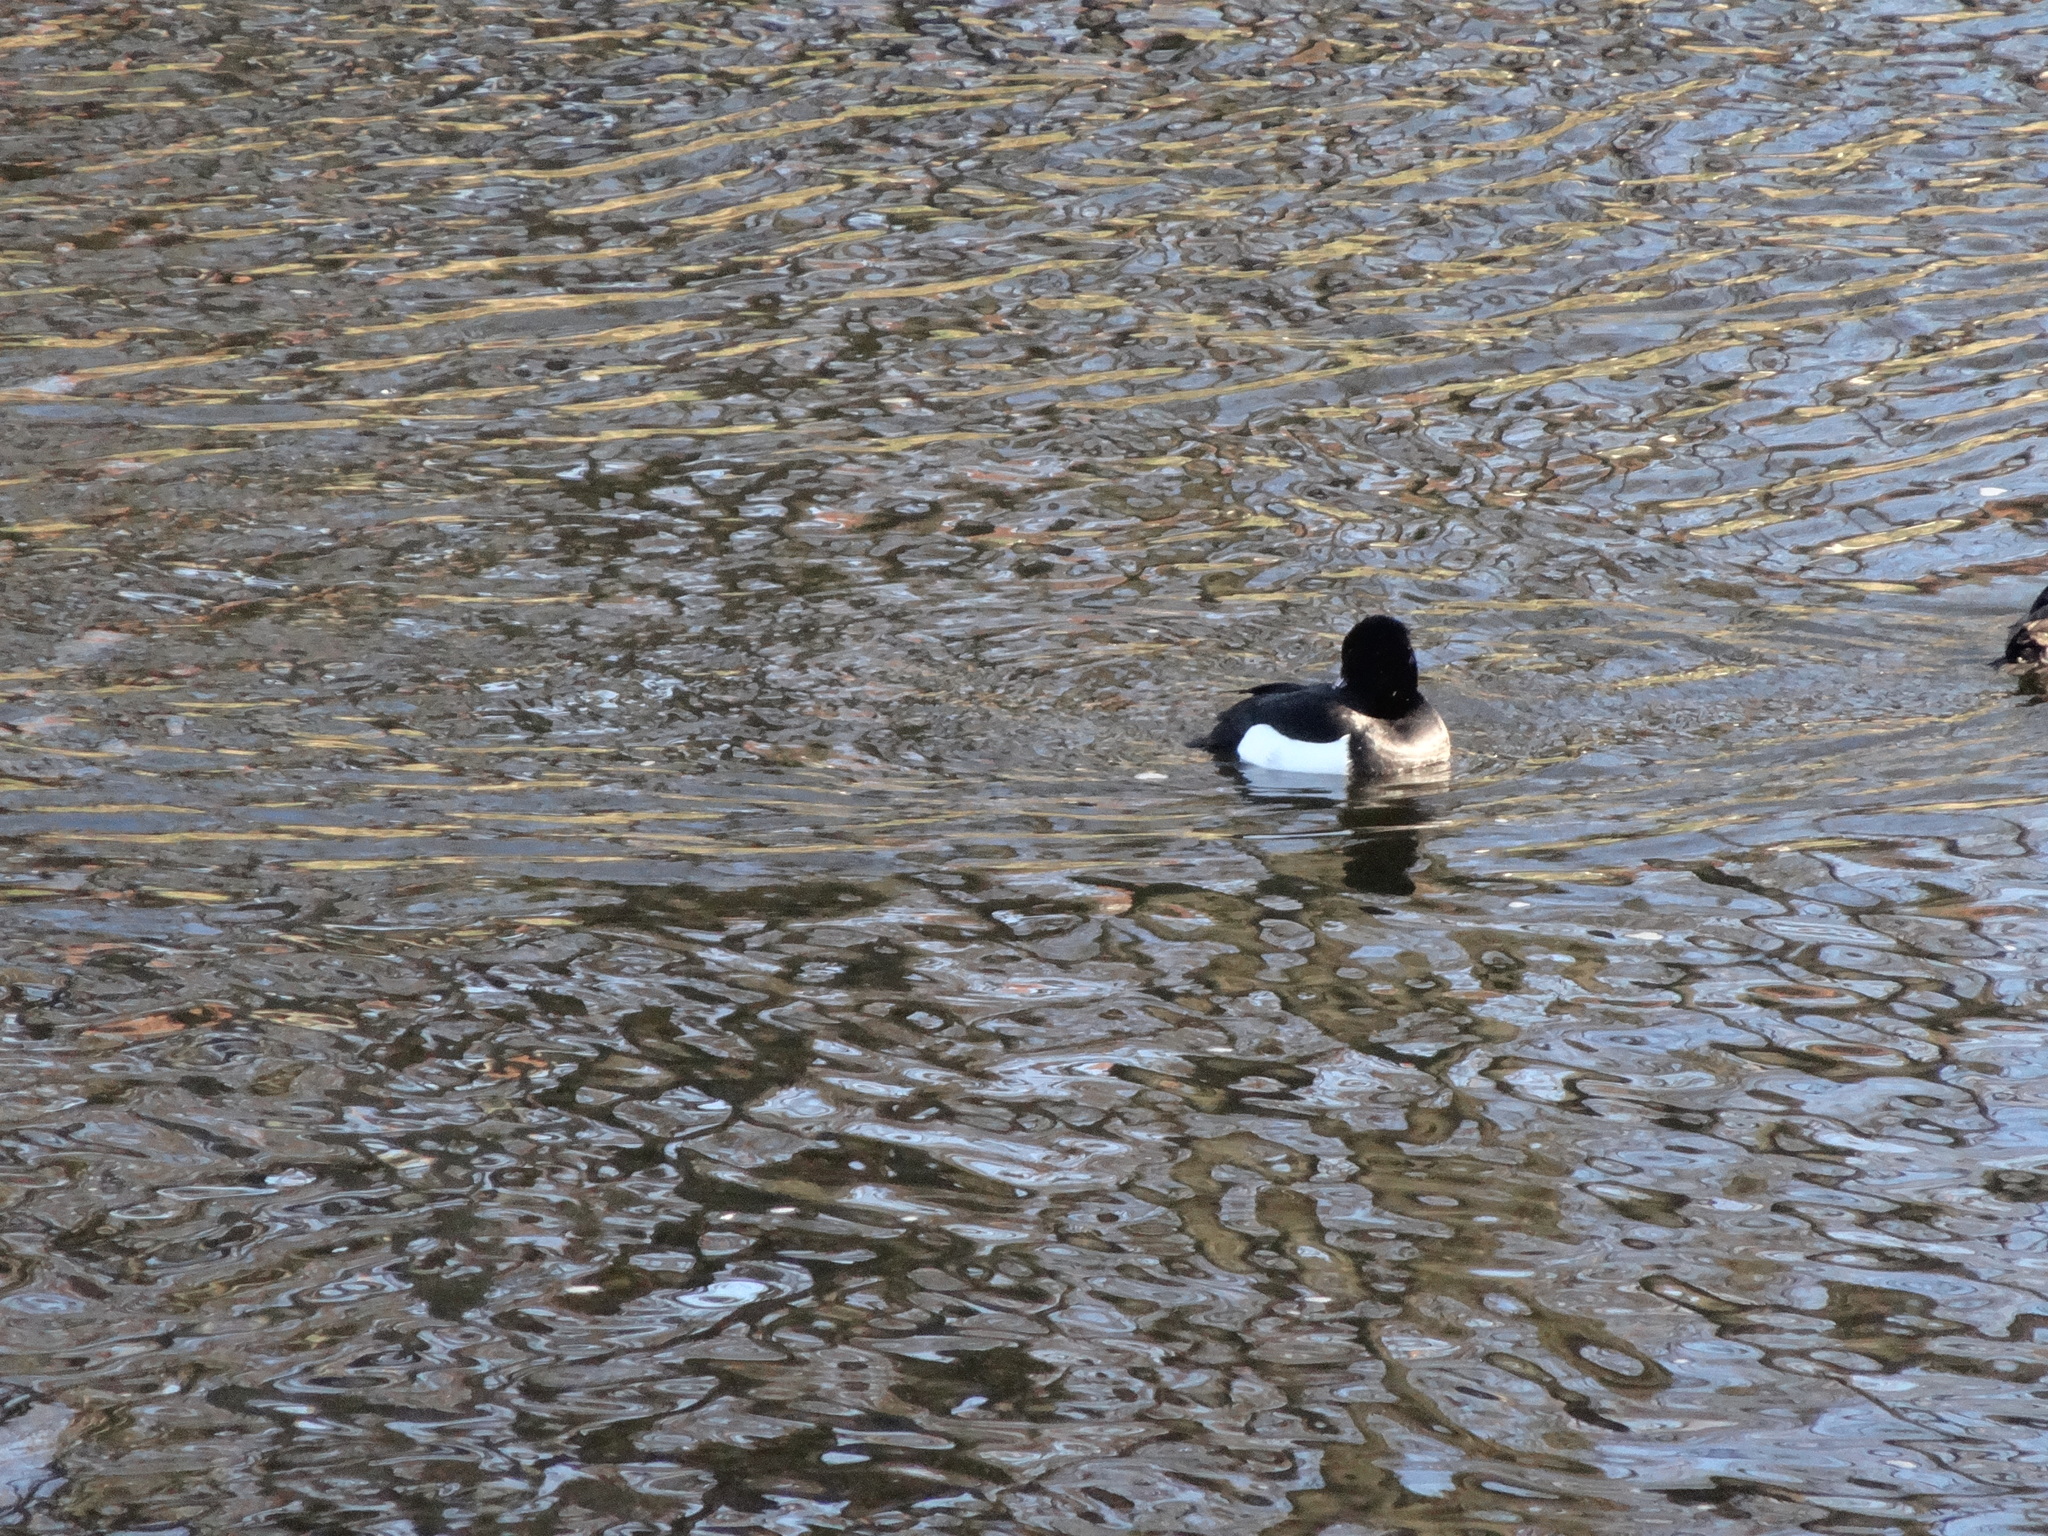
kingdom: Animalia
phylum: Chordata
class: Aves
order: Anseriformes
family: Anatidae
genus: Aythya
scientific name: Aythya fuligula
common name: Tufted duck
